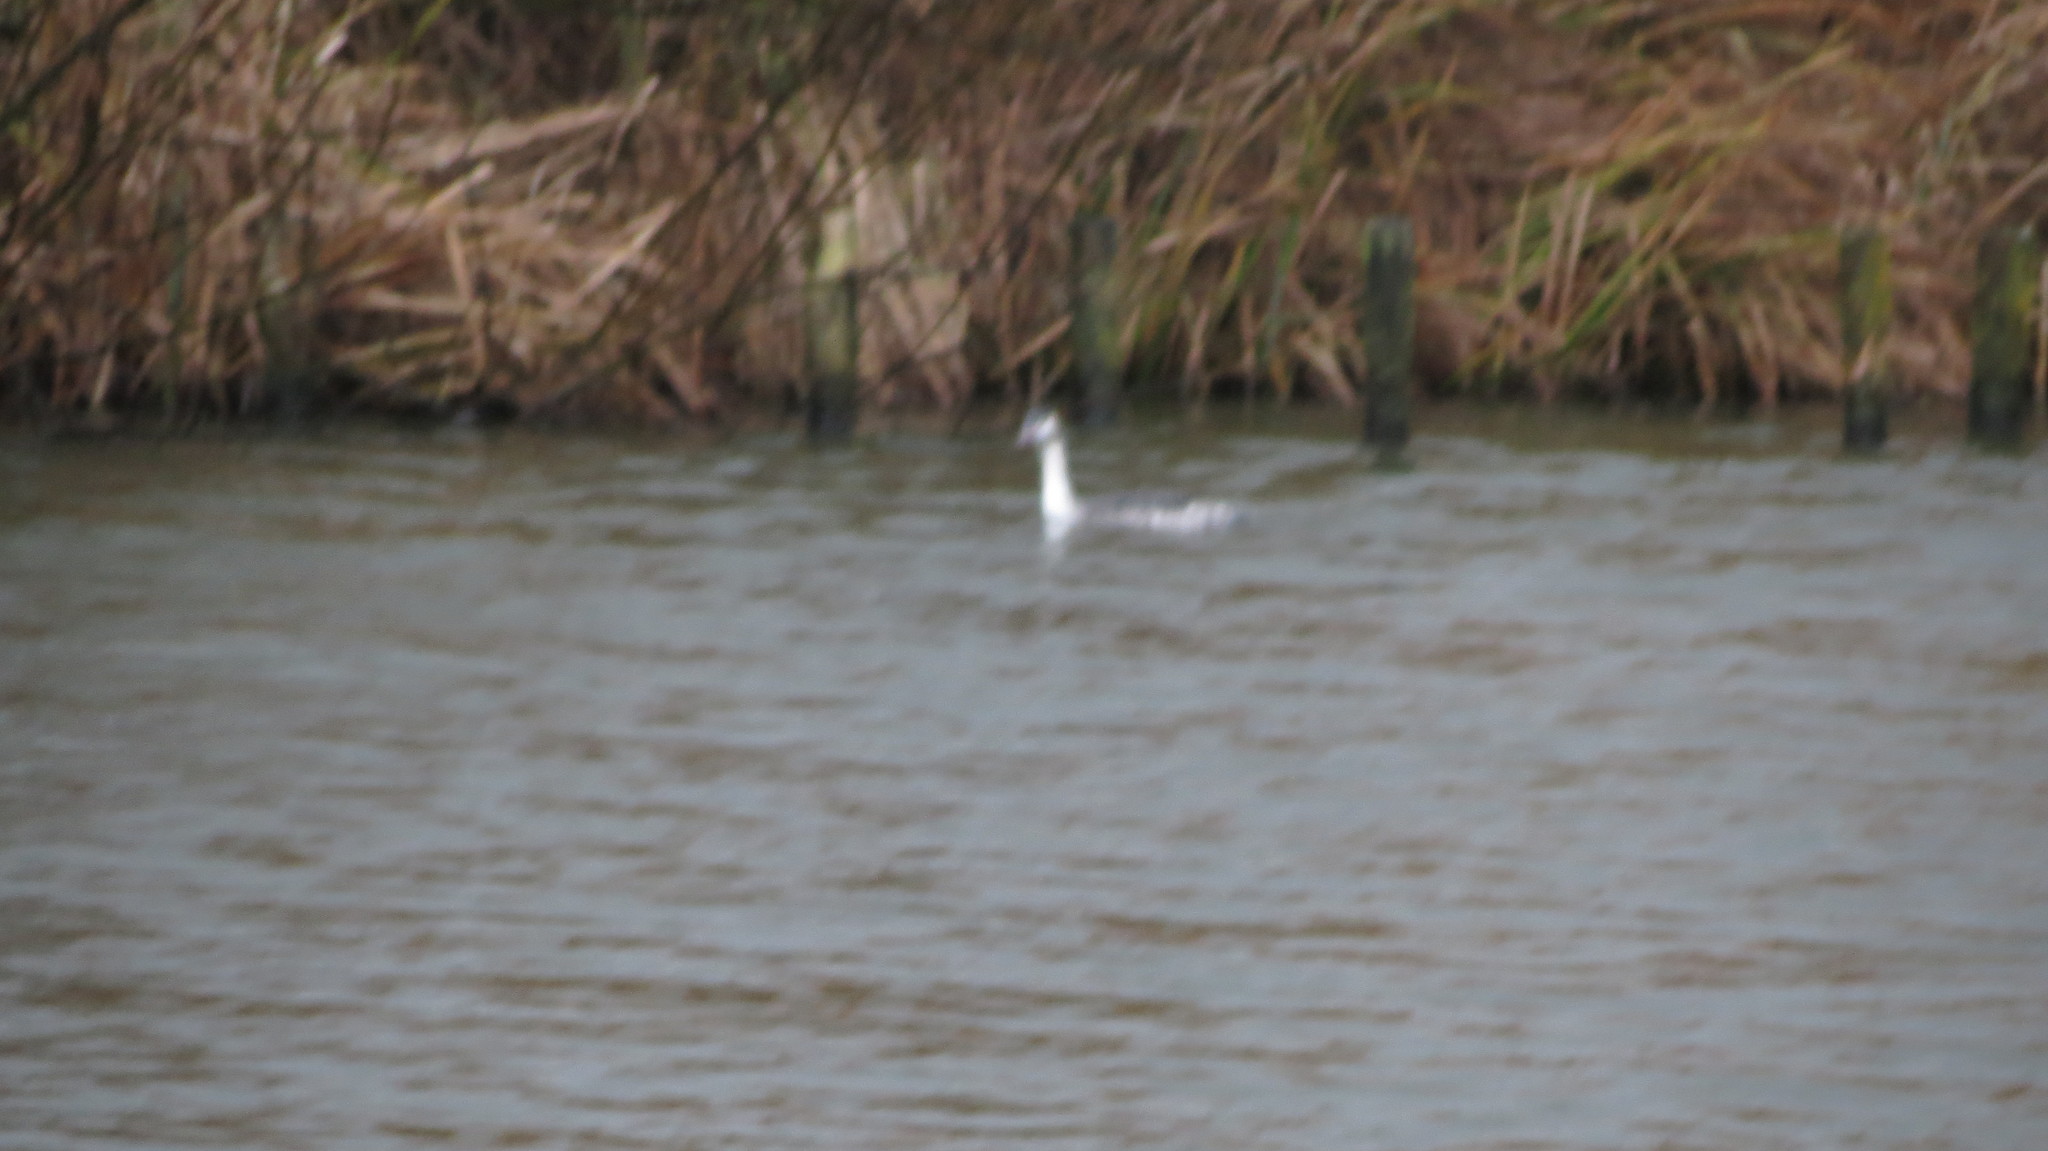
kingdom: Animalia
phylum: Chordata
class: Aves
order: Podicipediformes
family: Podicipedidae
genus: Podiceps
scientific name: Podiceps cristatus
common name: Great crested grebe
